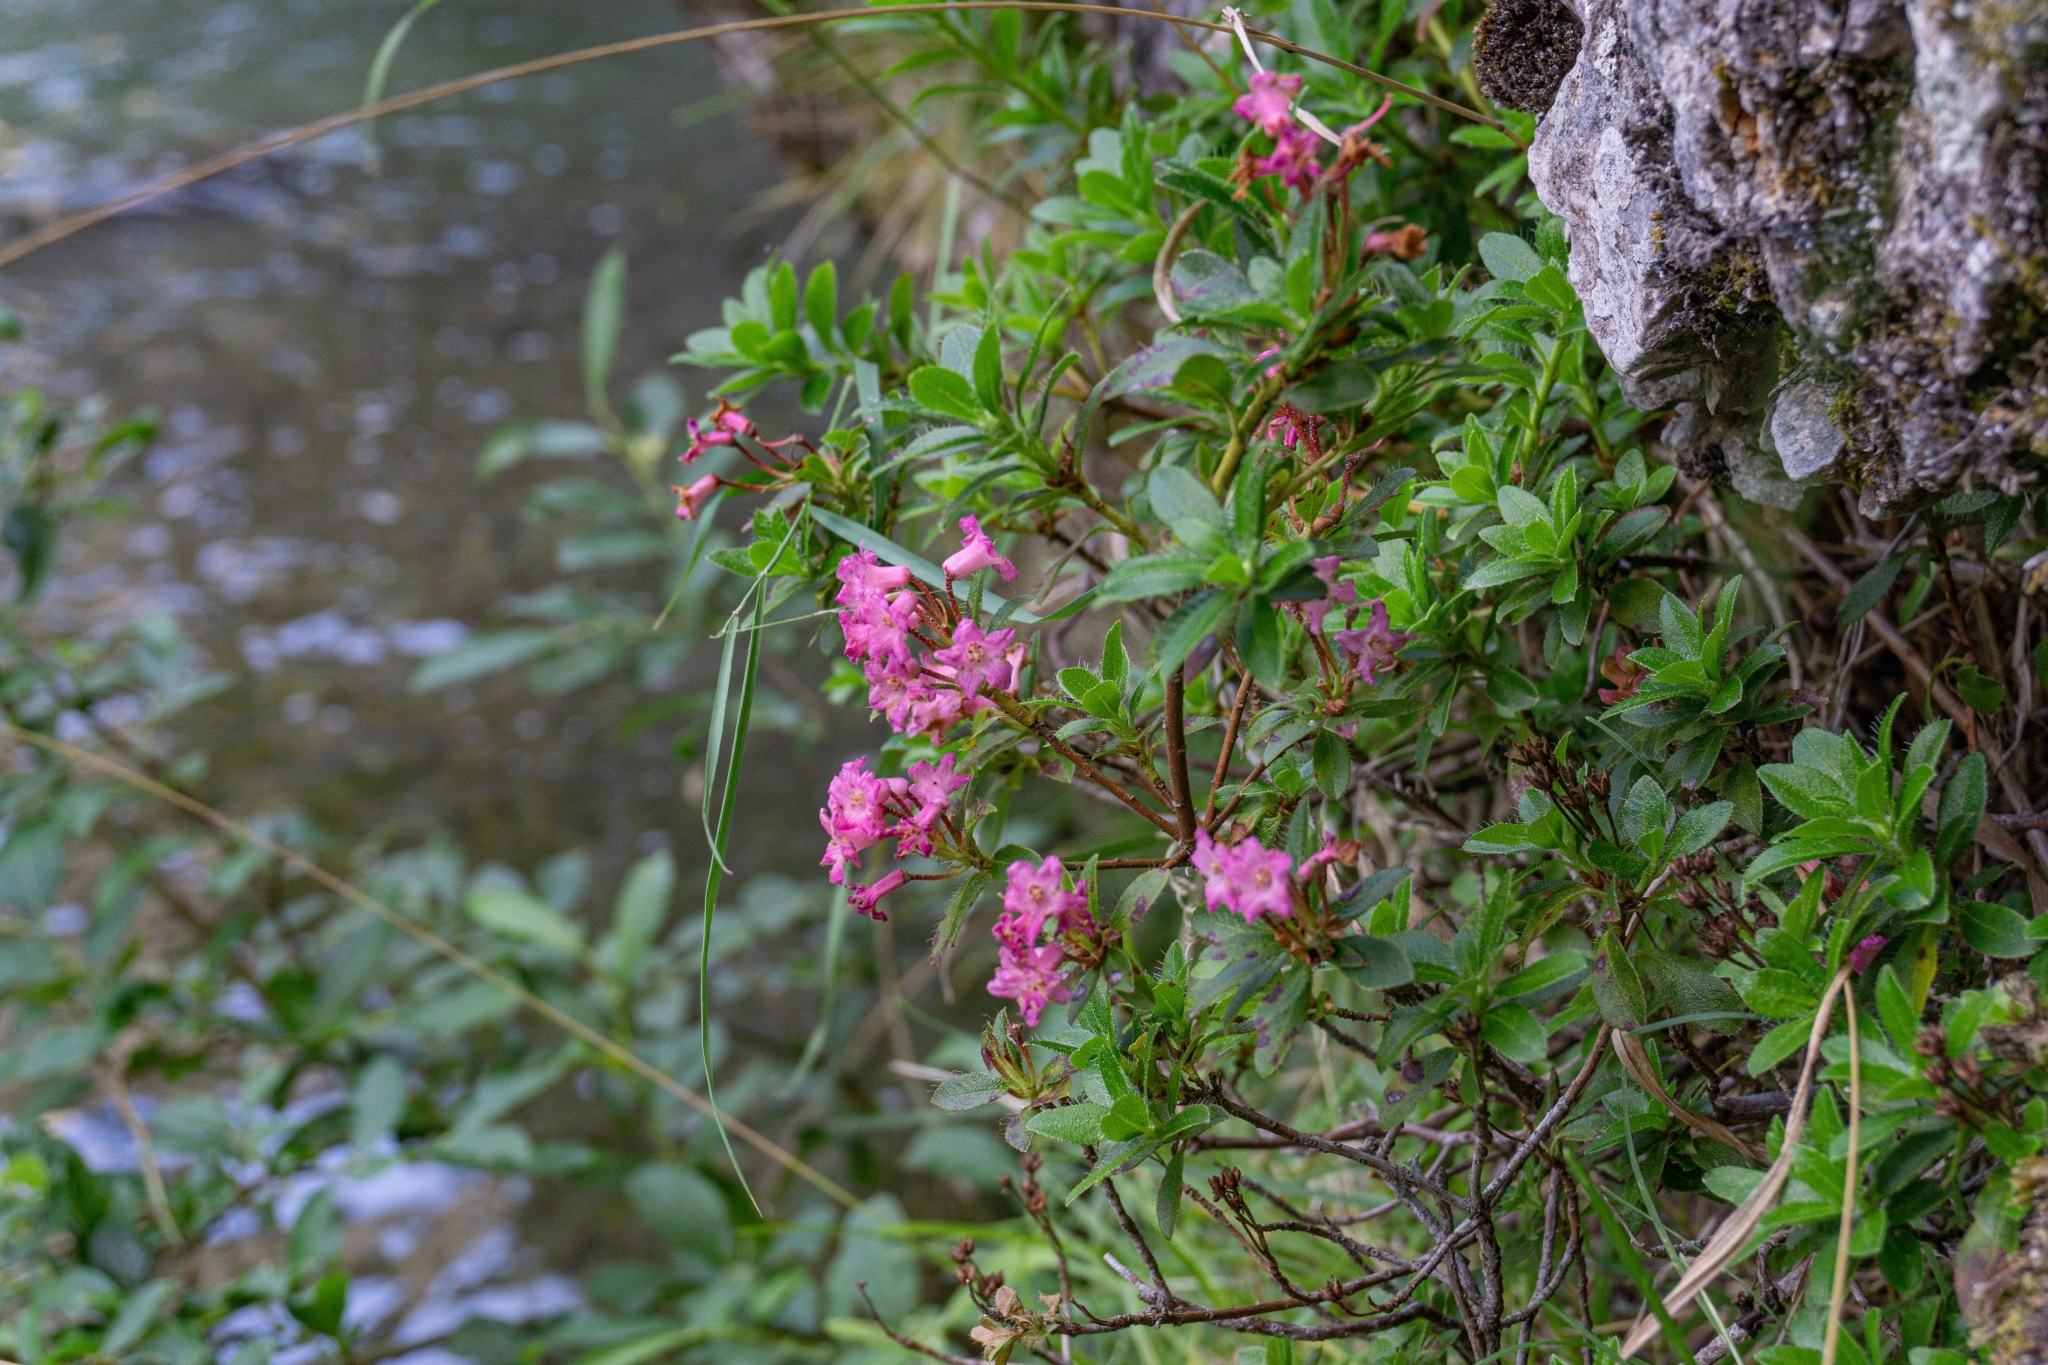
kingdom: Plantae
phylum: Tracheophyta
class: Magnoliopsida
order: Ericales
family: Ericaceae
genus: Rhododendron
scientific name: Rhododendron hirsutum
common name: Hairy alpenrose
